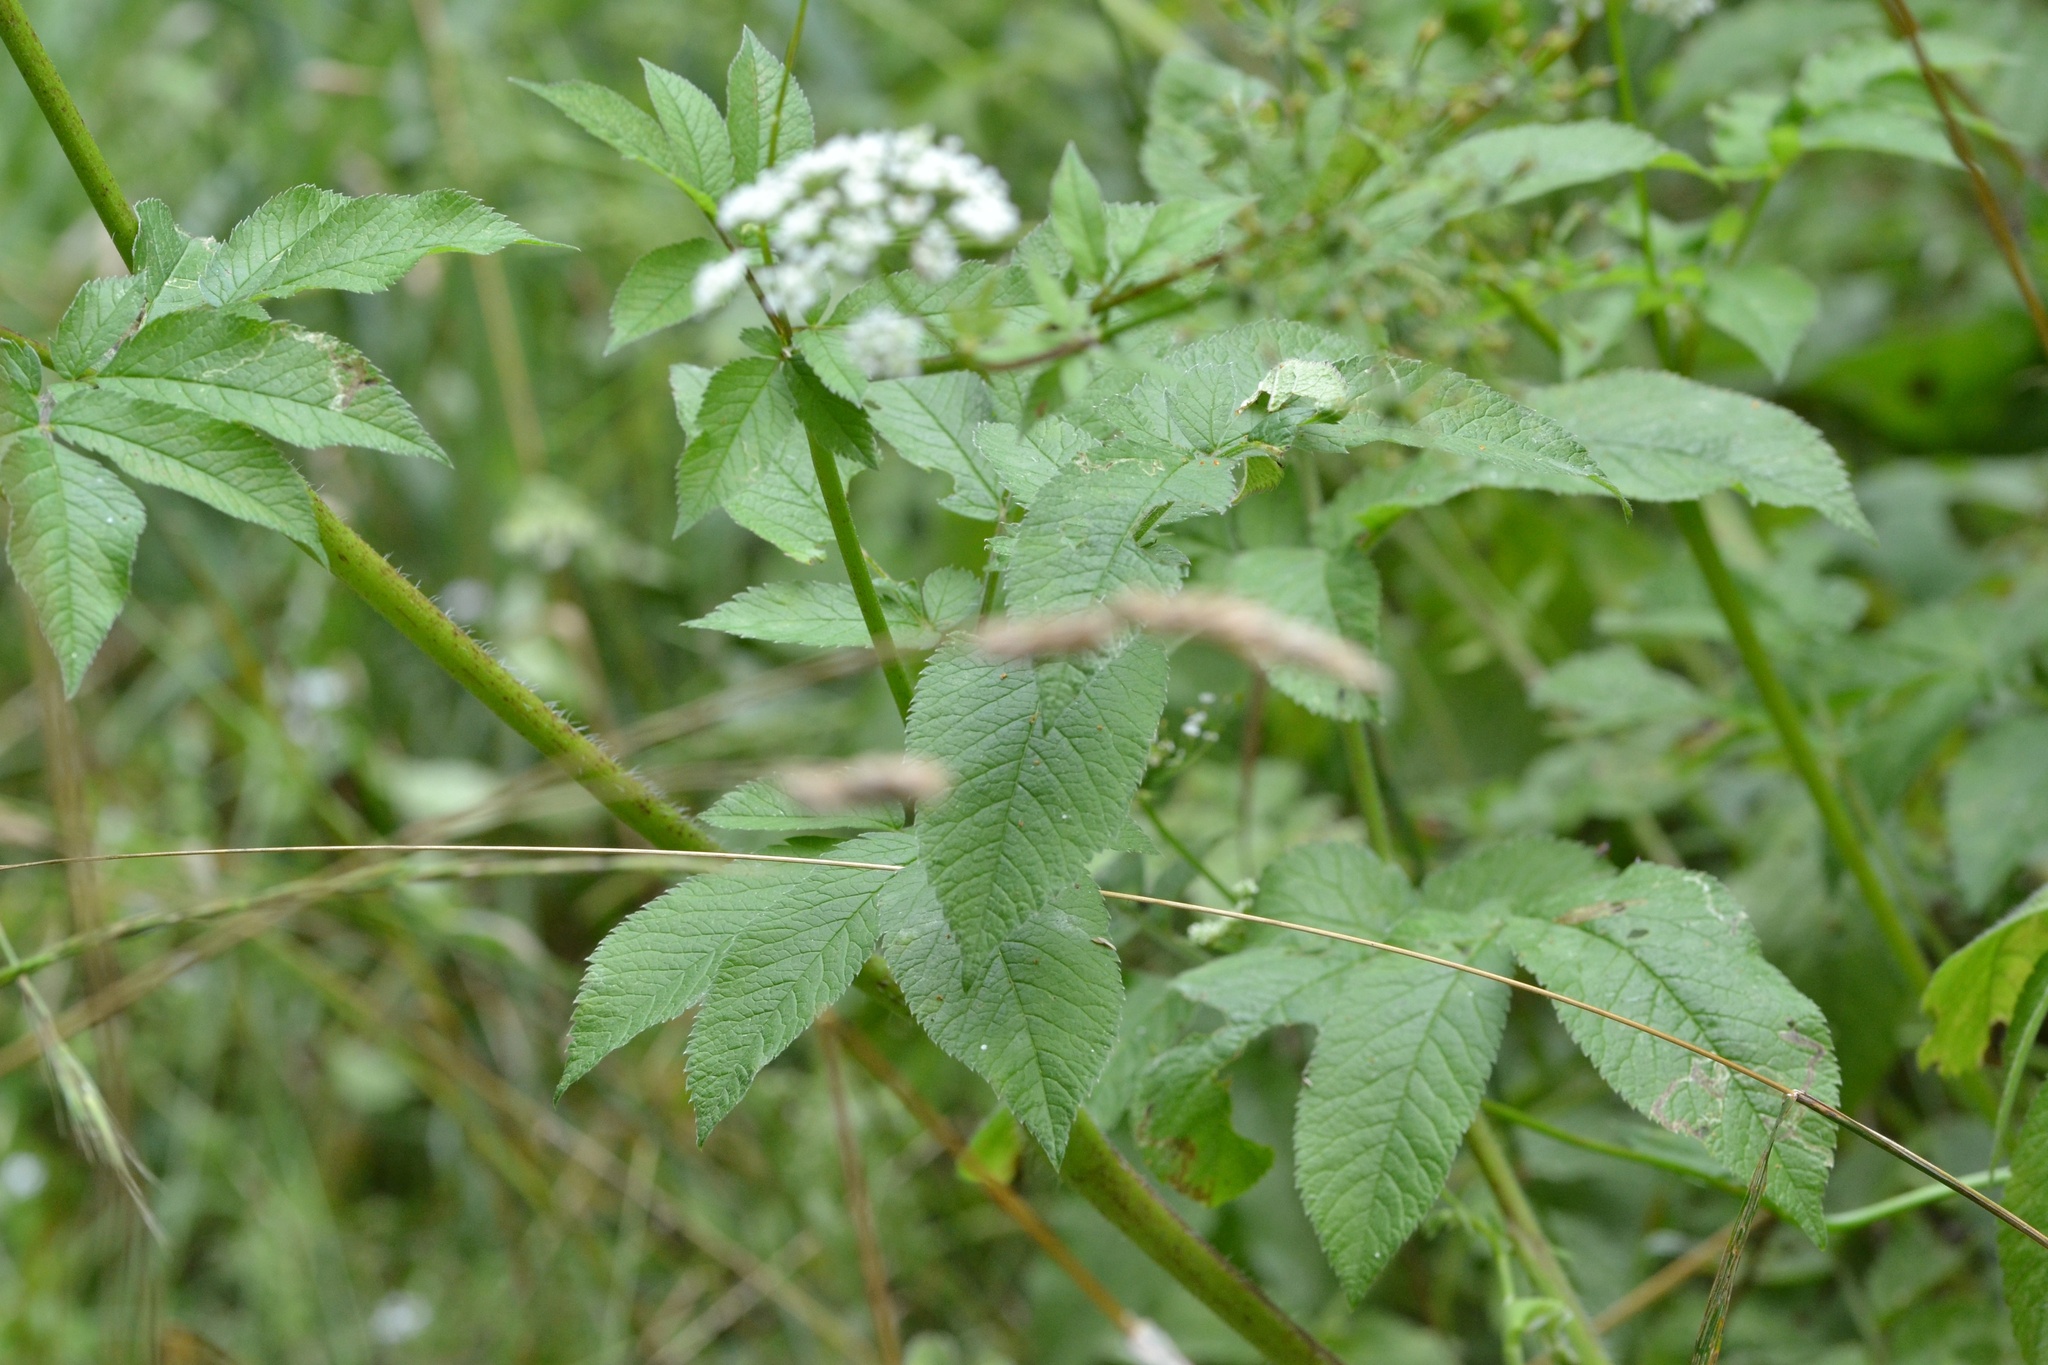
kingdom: Plantae
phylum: Tracheophyta
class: Magnoliopsida
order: Apiales
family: Apiaceae
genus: Chaerophyllum
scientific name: Chaerophyllum aromaticum
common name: Broadleaf chervil
